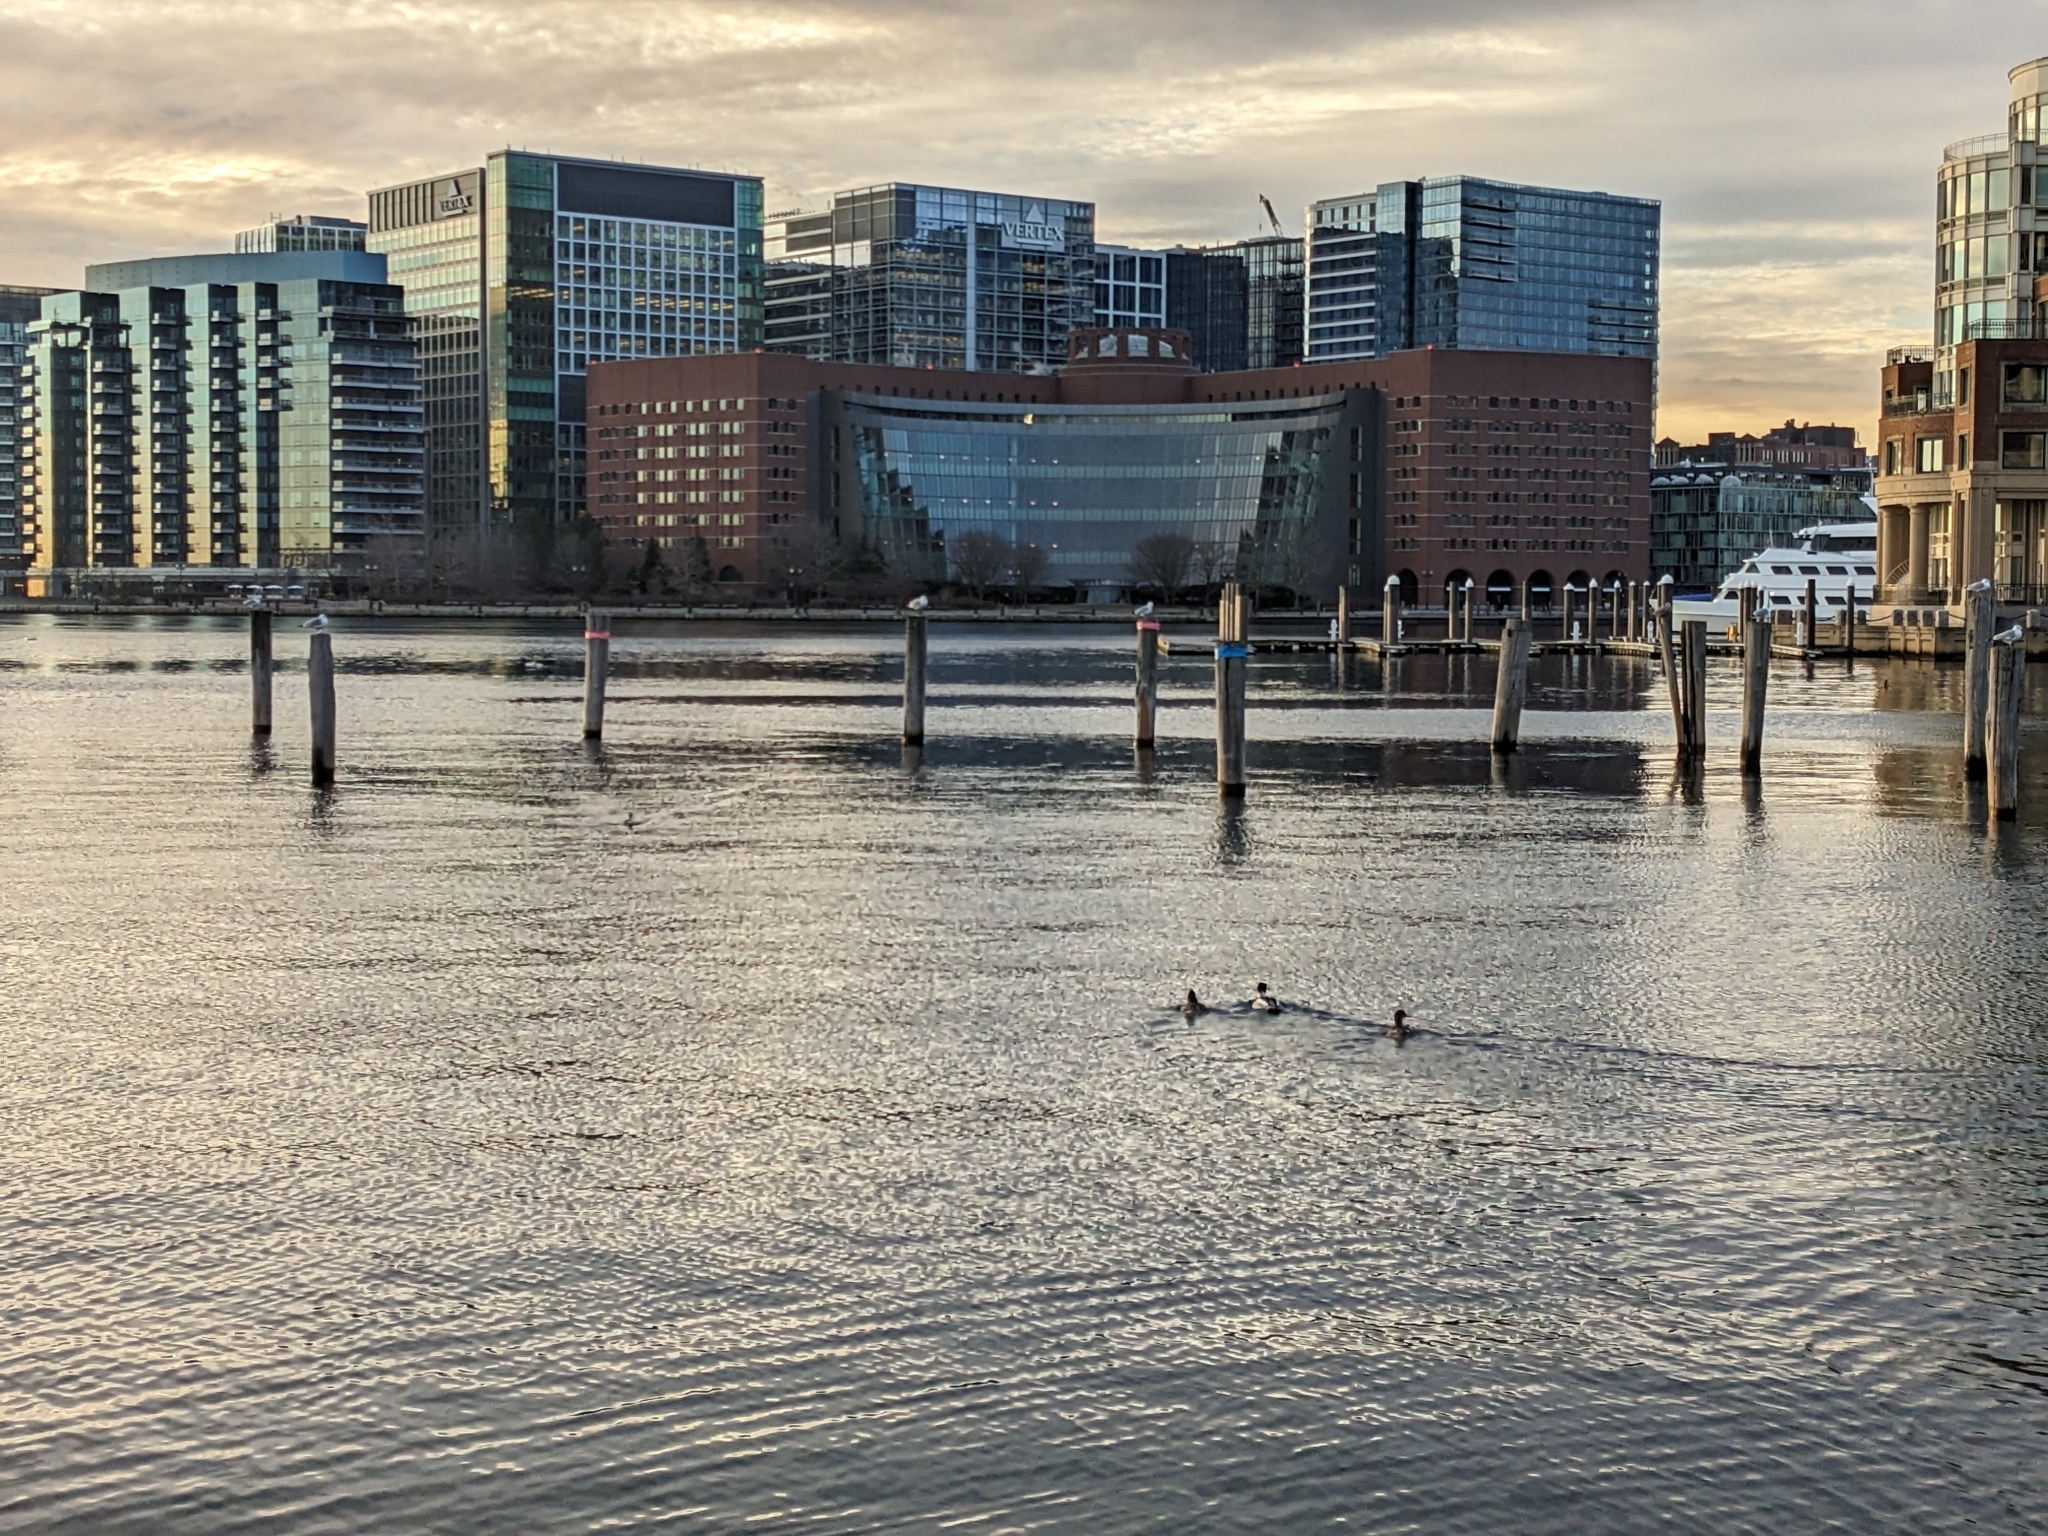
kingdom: Animalia
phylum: Chordata
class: Aves
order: Anseriformes
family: Anatidae
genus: Mergus
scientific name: Mergus serrator
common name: Red-breasted merganser
